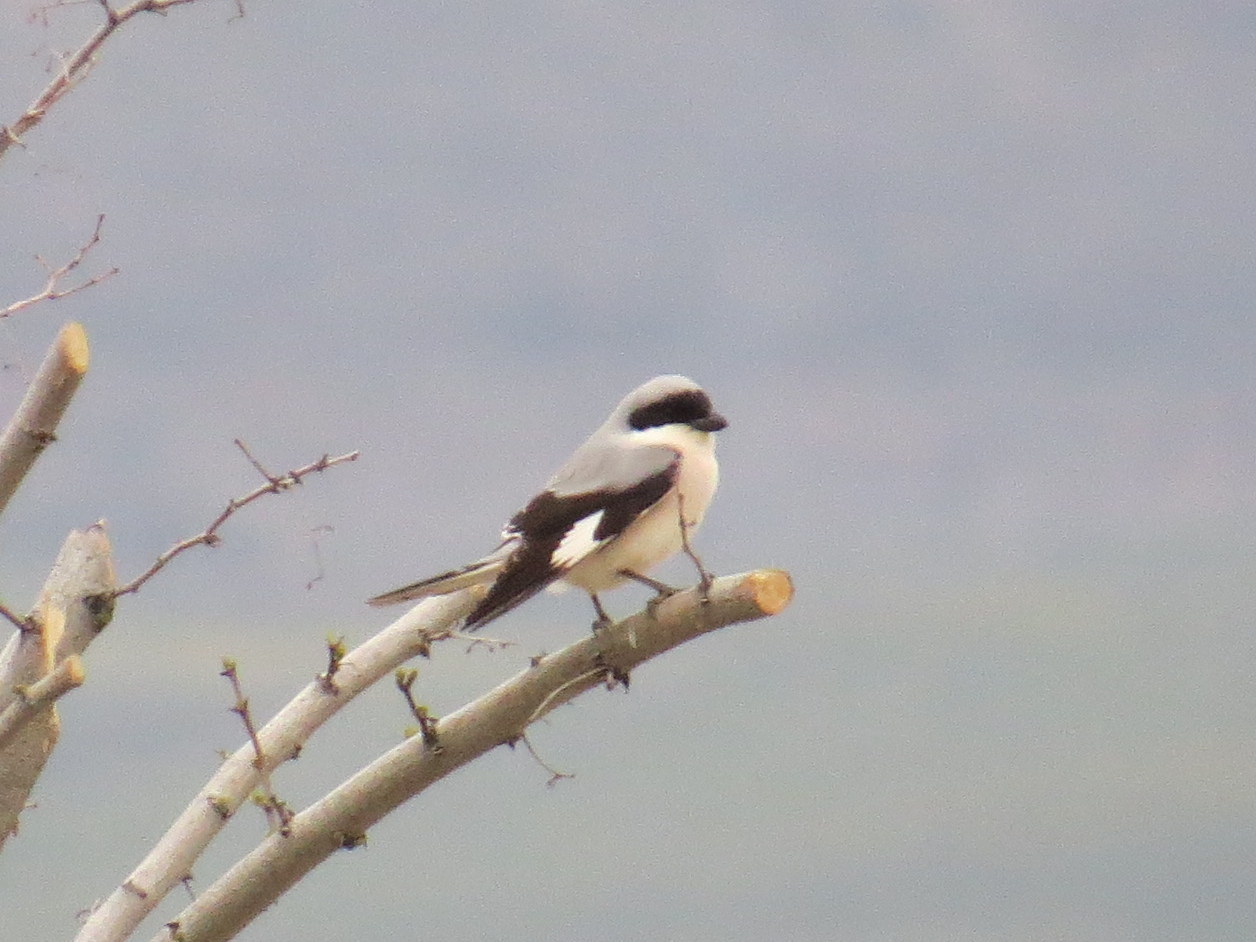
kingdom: Animalia
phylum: Chordata
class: Aves
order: Passeriformes
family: Laniidae
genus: Lanius
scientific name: Lanius minor
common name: Lesser grey shrike
